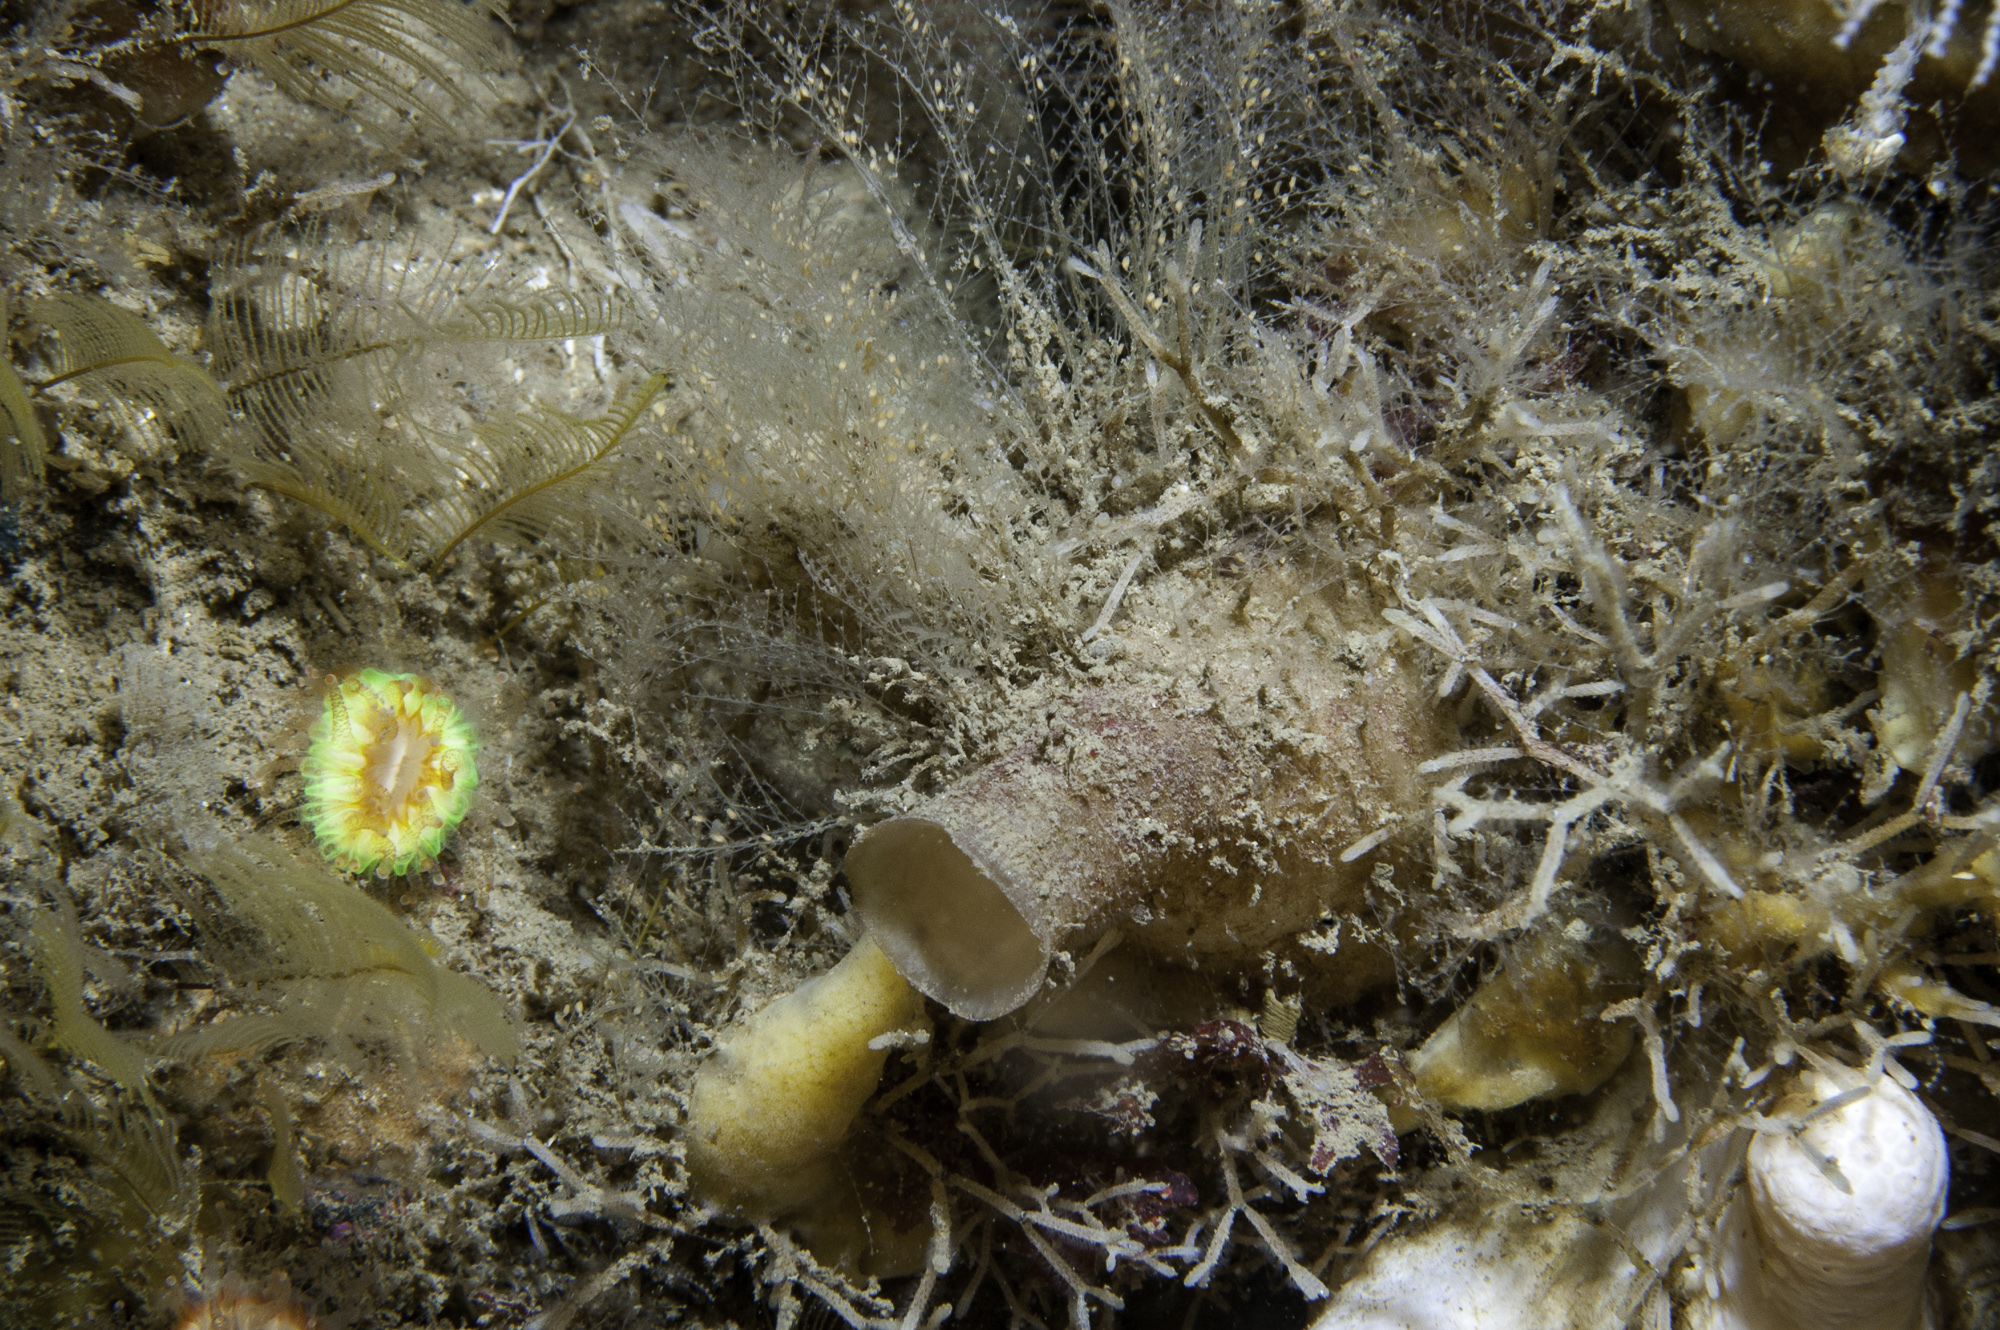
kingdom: Animalia
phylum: Cnidaria
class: Hydrozoa
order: Leptothecata
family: Halopterididae
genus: Halopteris
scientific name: Halopteris catharina
